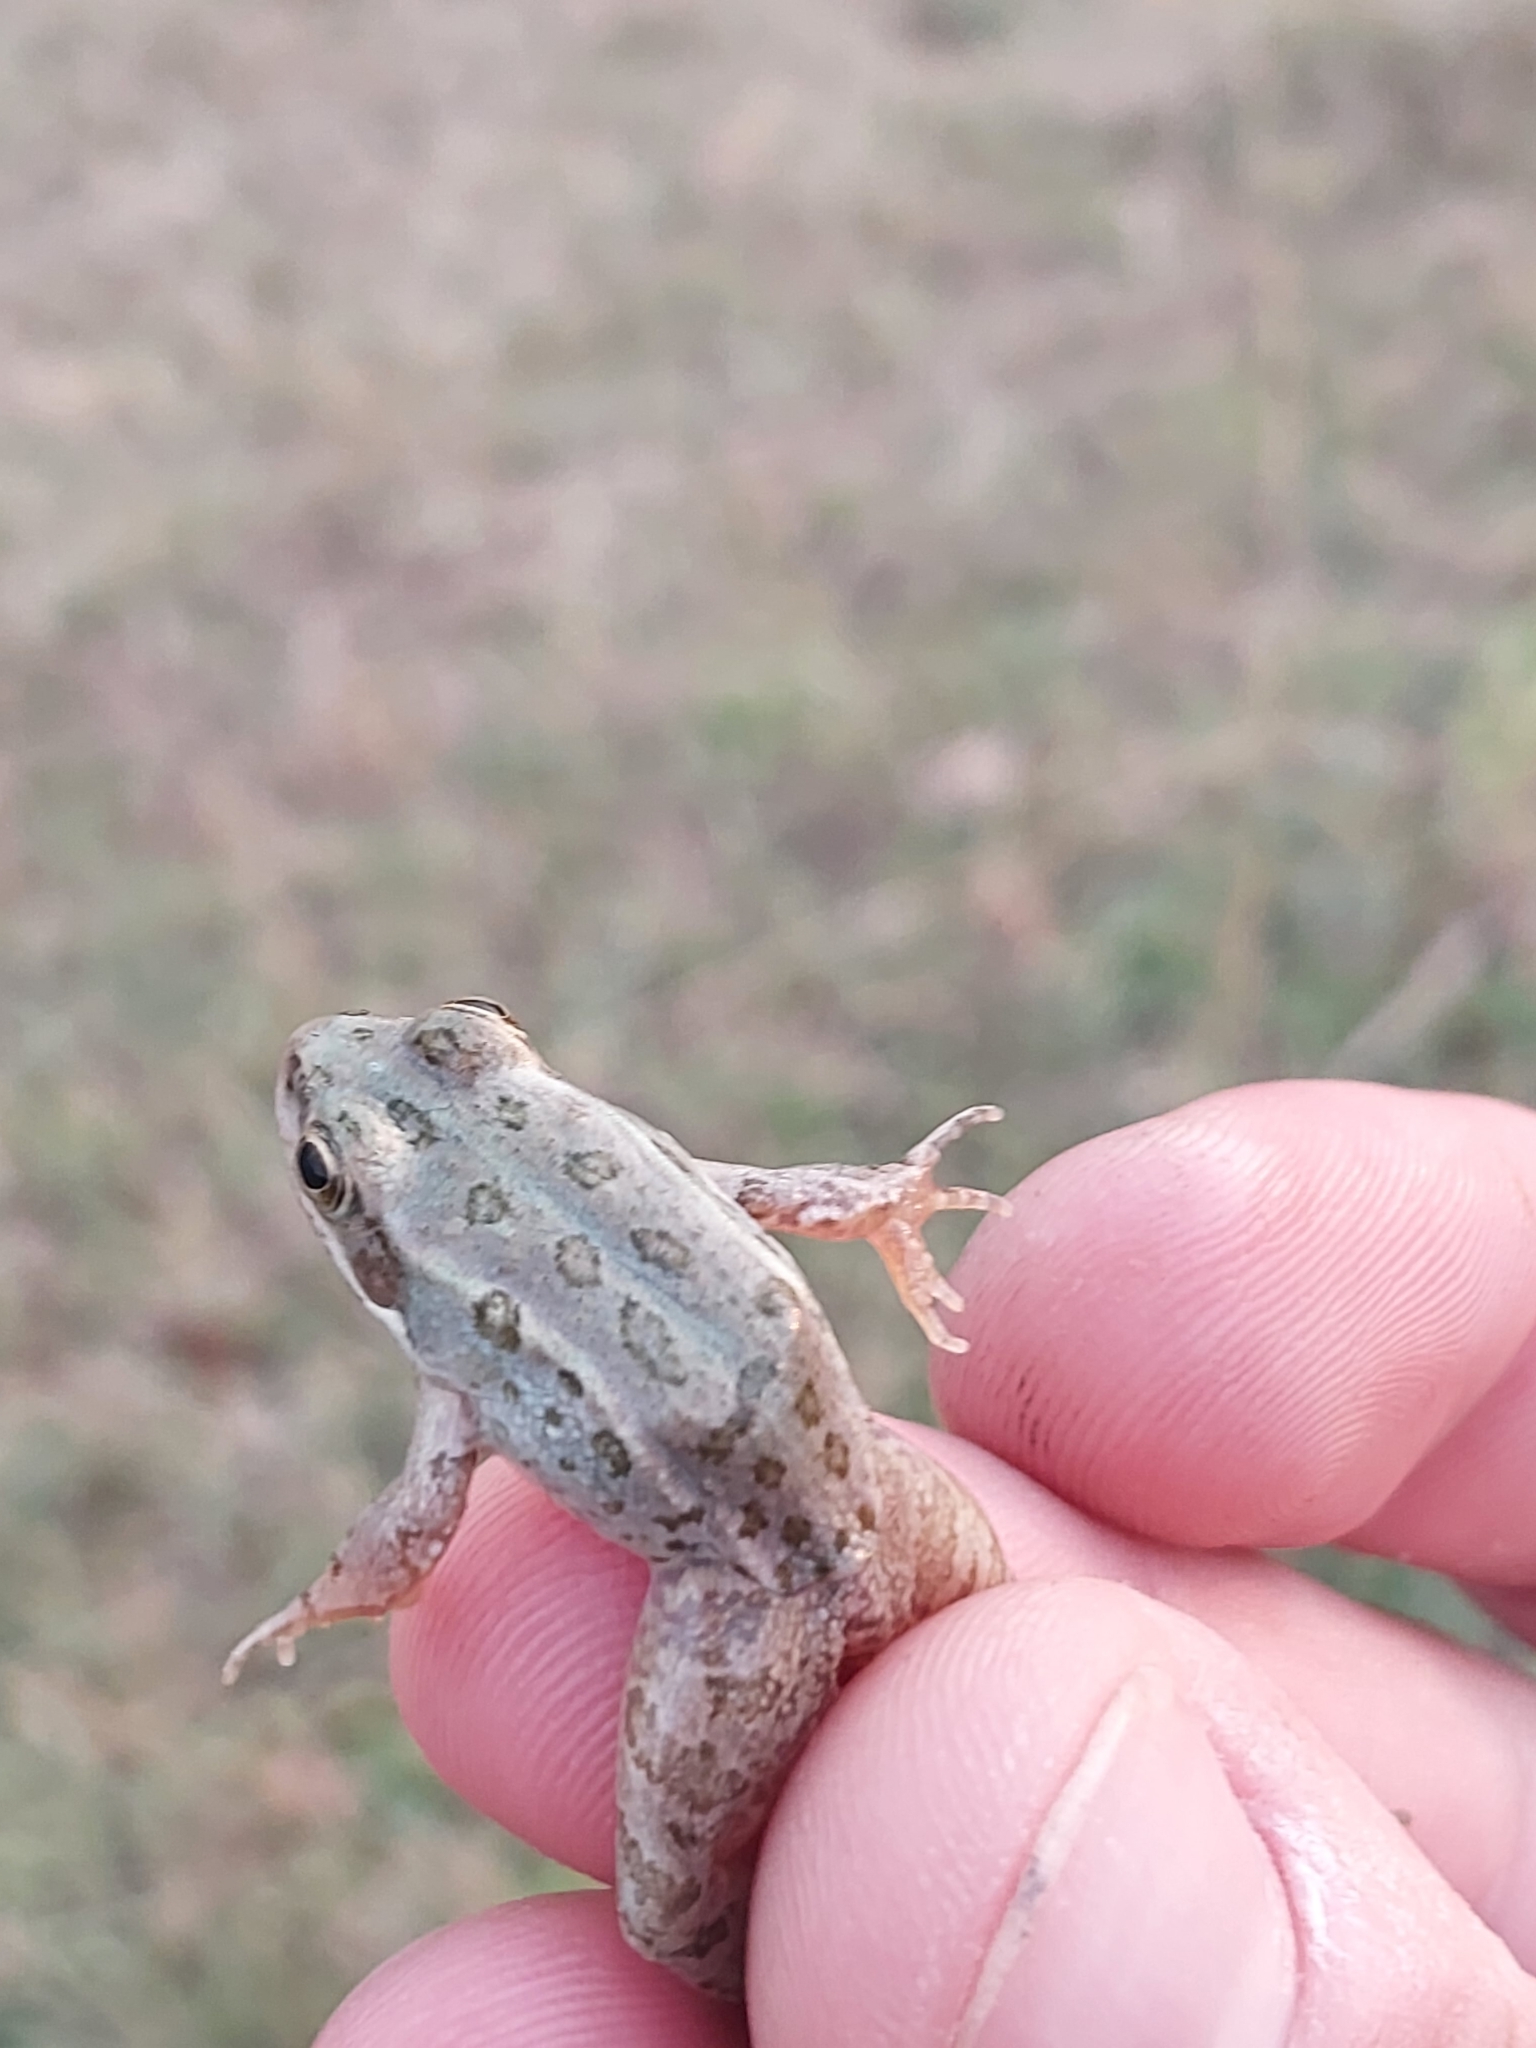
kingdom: Animalia
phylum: Chordata
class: Amphibia
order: Anura
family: Ranidae
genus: Pelophylax
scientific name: Pelophylax ridibundus
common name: Marsh frog
